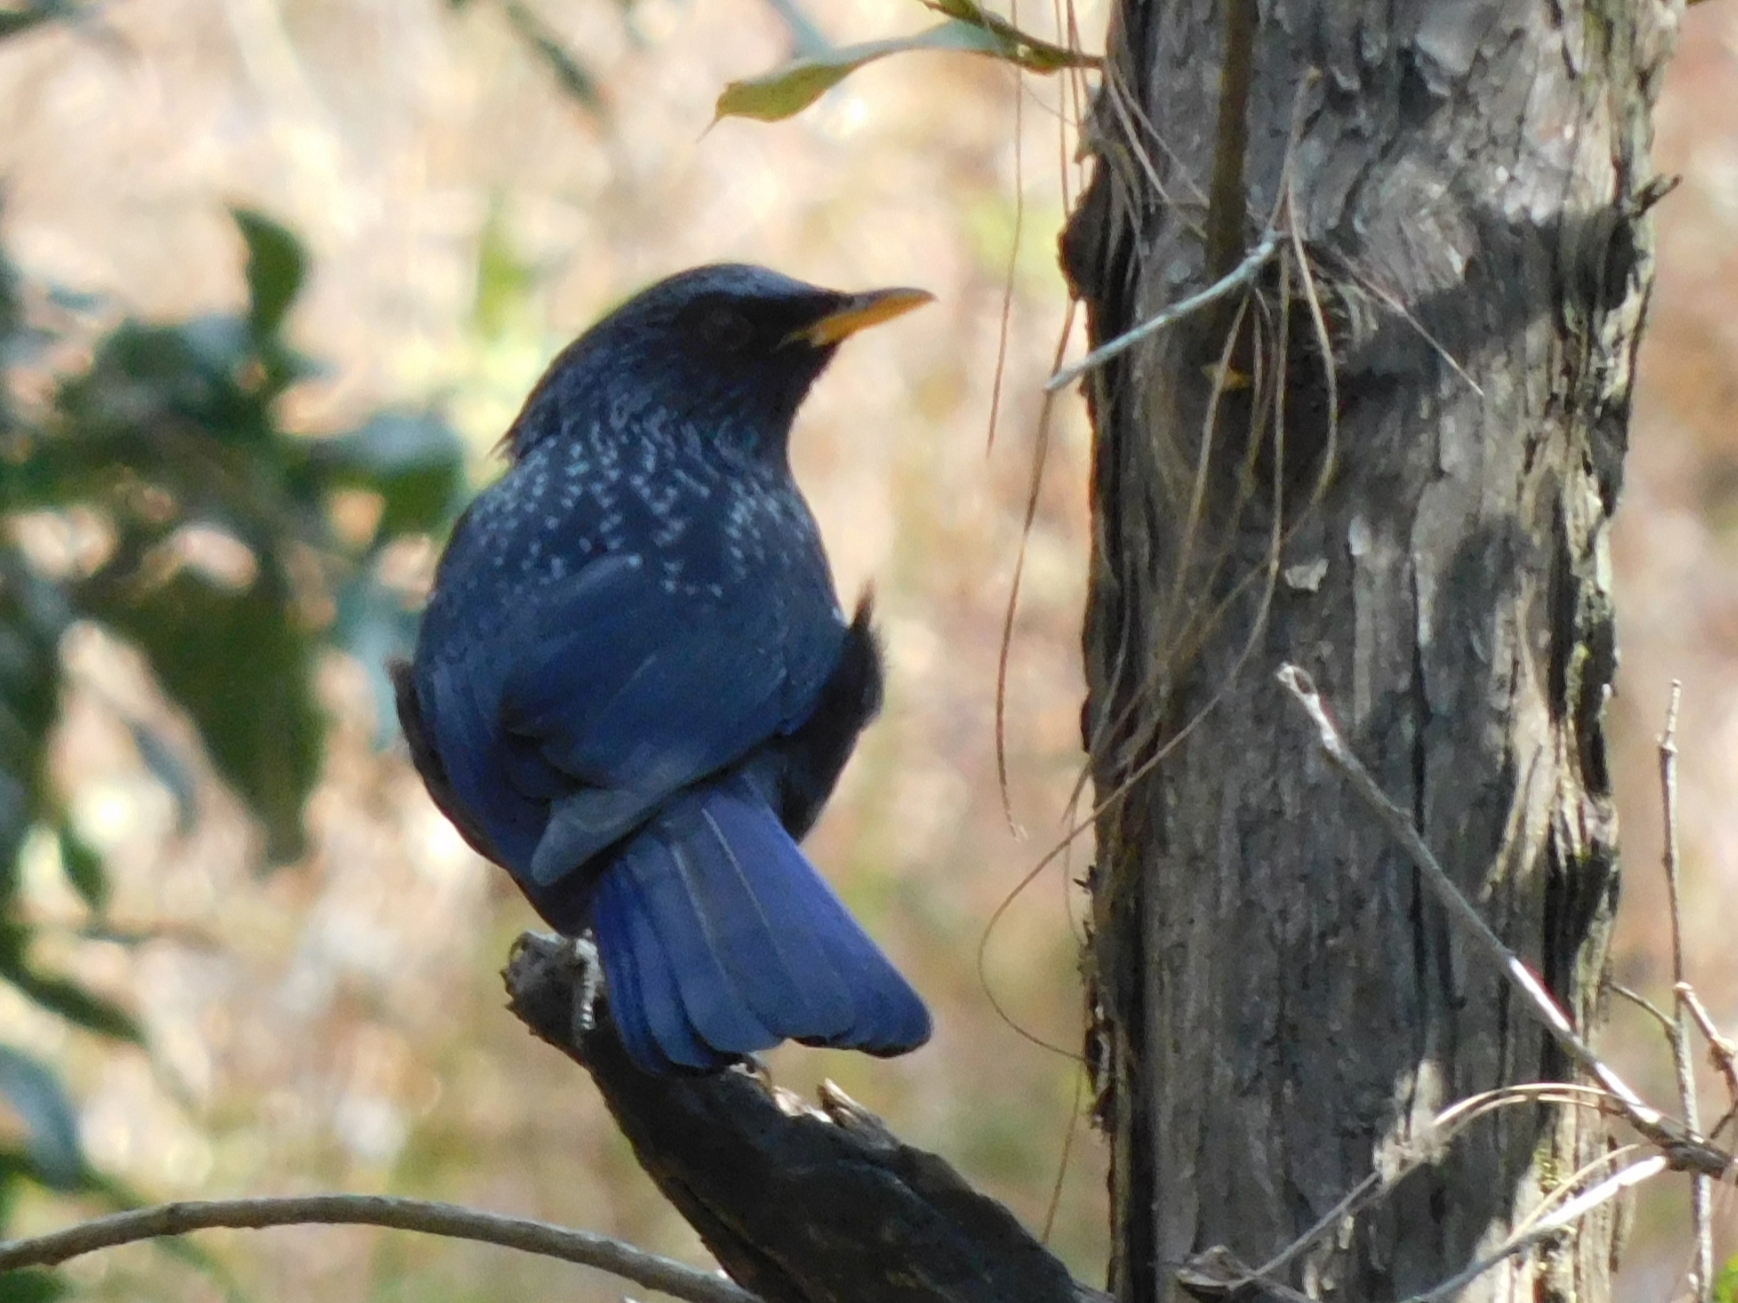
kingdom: Animalia
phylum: Chordata
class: Aves
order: Passeriformes
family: Muscicapidae
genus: Myophonus
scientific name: Myophonus caeruleus
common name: Blue whistling-thrush
